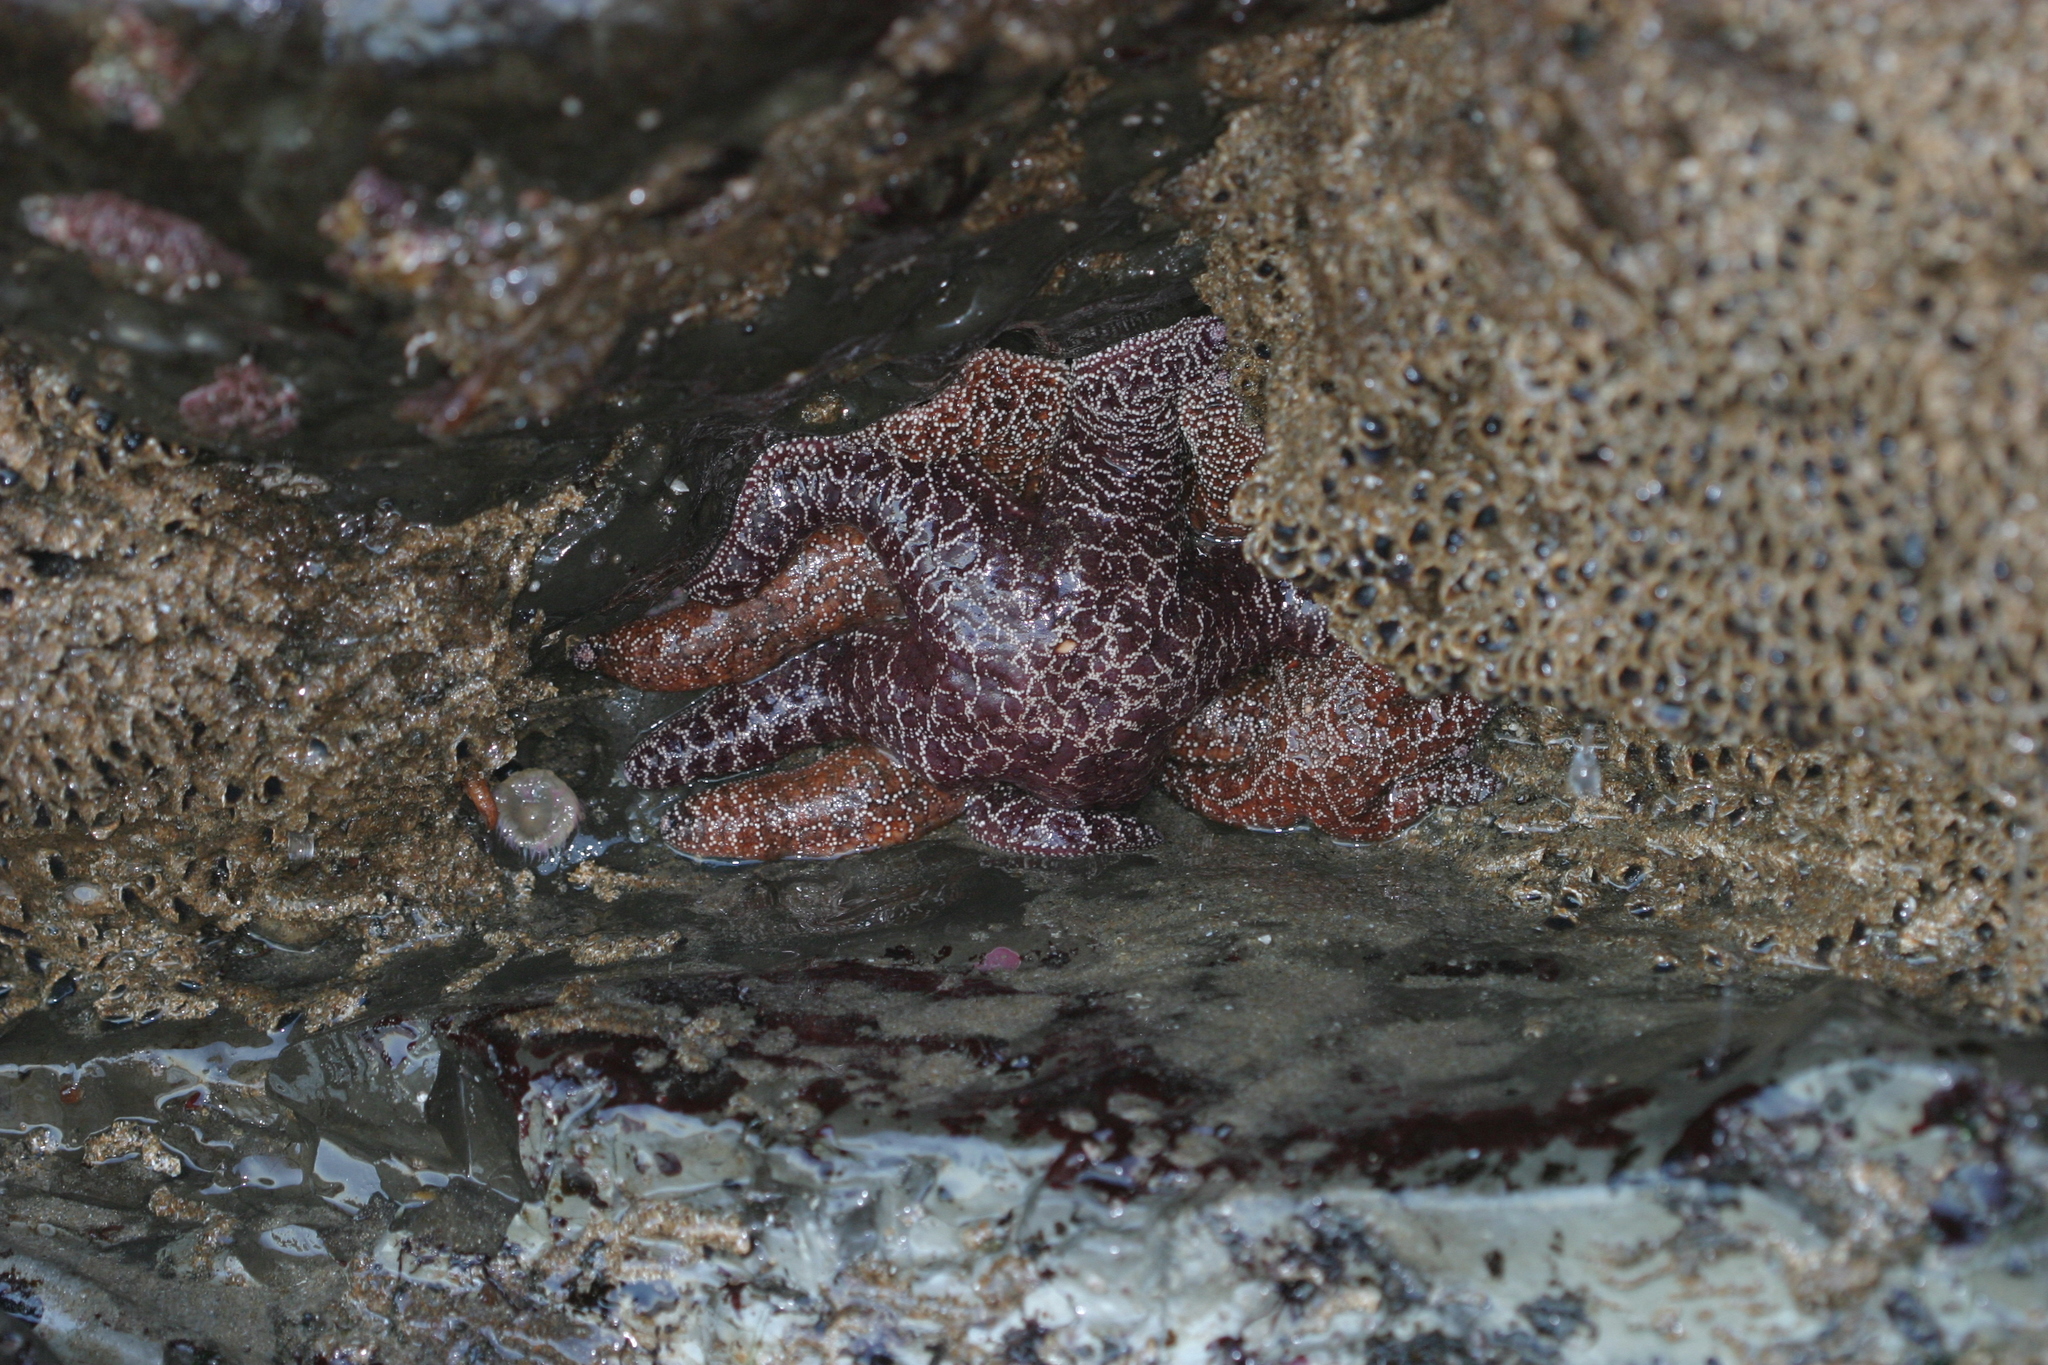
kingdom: Animalia
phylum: Echinodermata
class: Asteroidea
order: Forcipulatida
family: Asteriidae
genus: Pisaster
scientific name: Pisaster ochraceus
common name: Ochre stars
